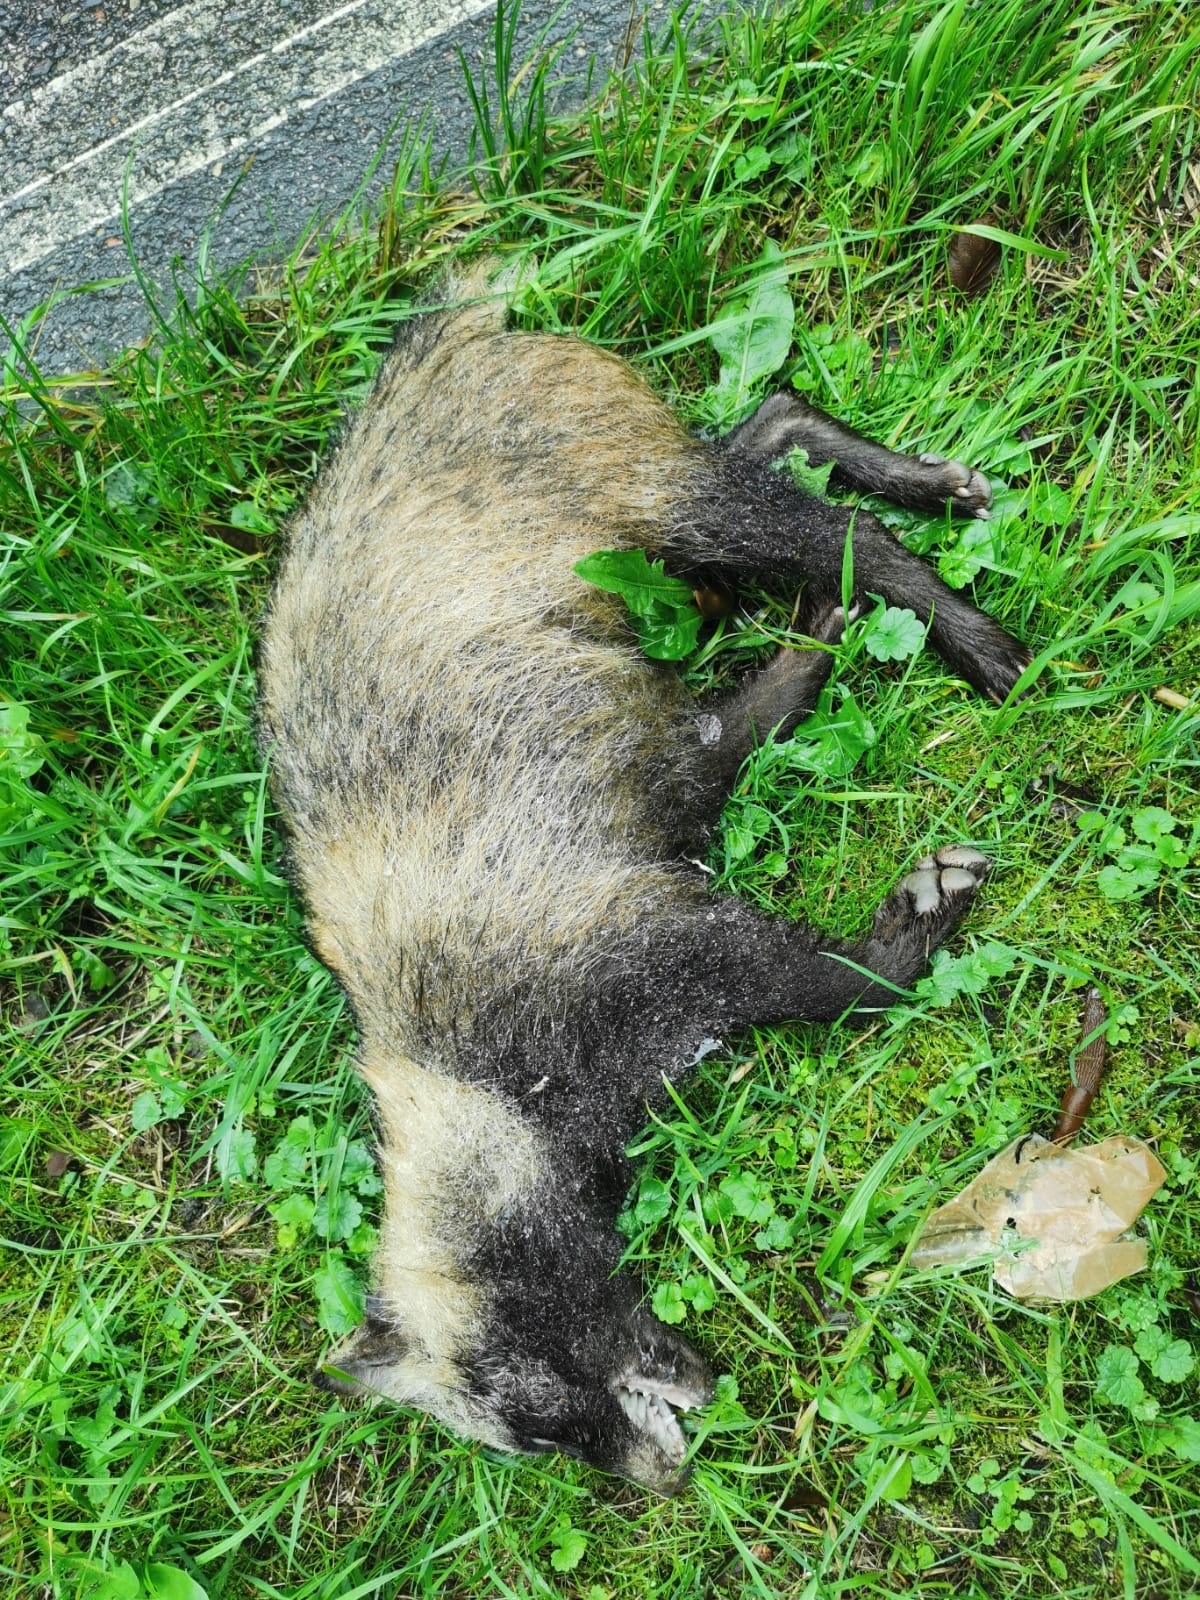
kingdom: Animalia
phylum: Chordata
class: Mammalia
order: Carnivora
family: Canidae
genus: Nyctereutes
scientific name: Nyctereutes procyonoides
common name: Raccoon dog
